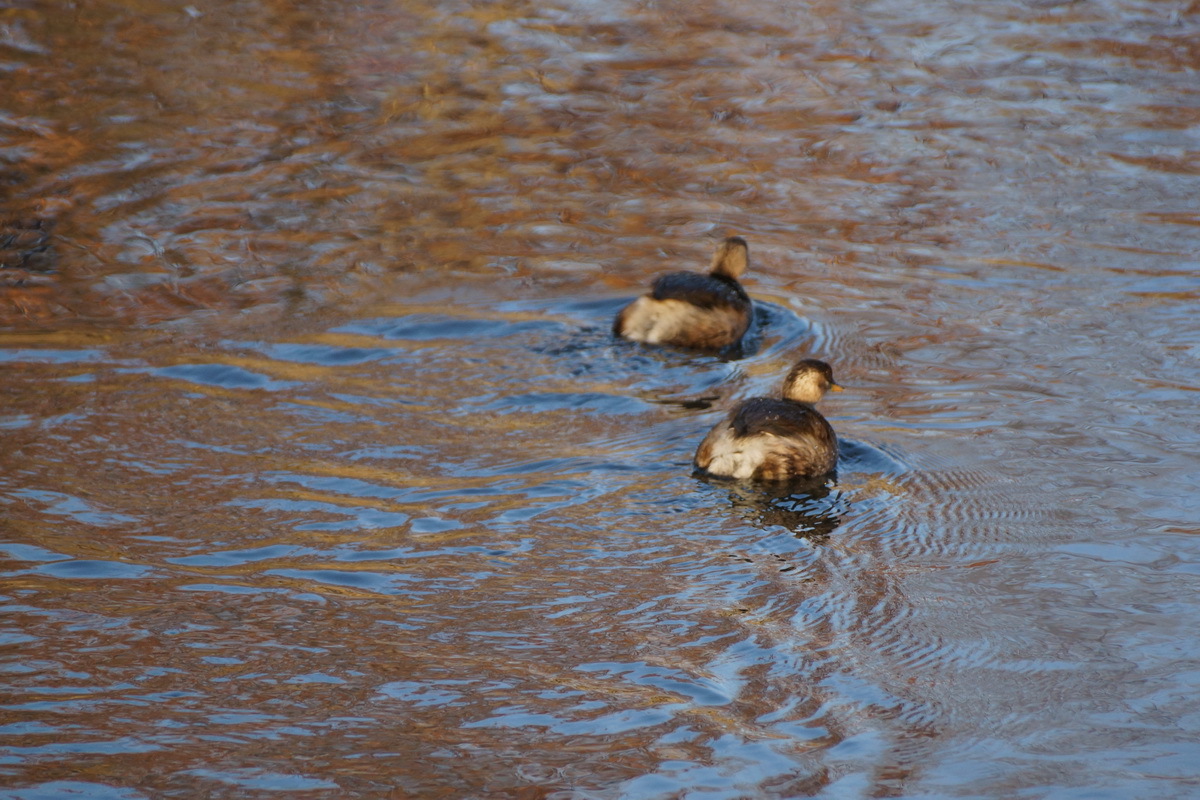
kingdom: Animalia
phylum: Chordata
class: Aves
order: Podicipediformes
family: Podicipedidae
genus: Tachybaptus
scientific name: Tachybaptus ruficollis
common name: Little grebe
